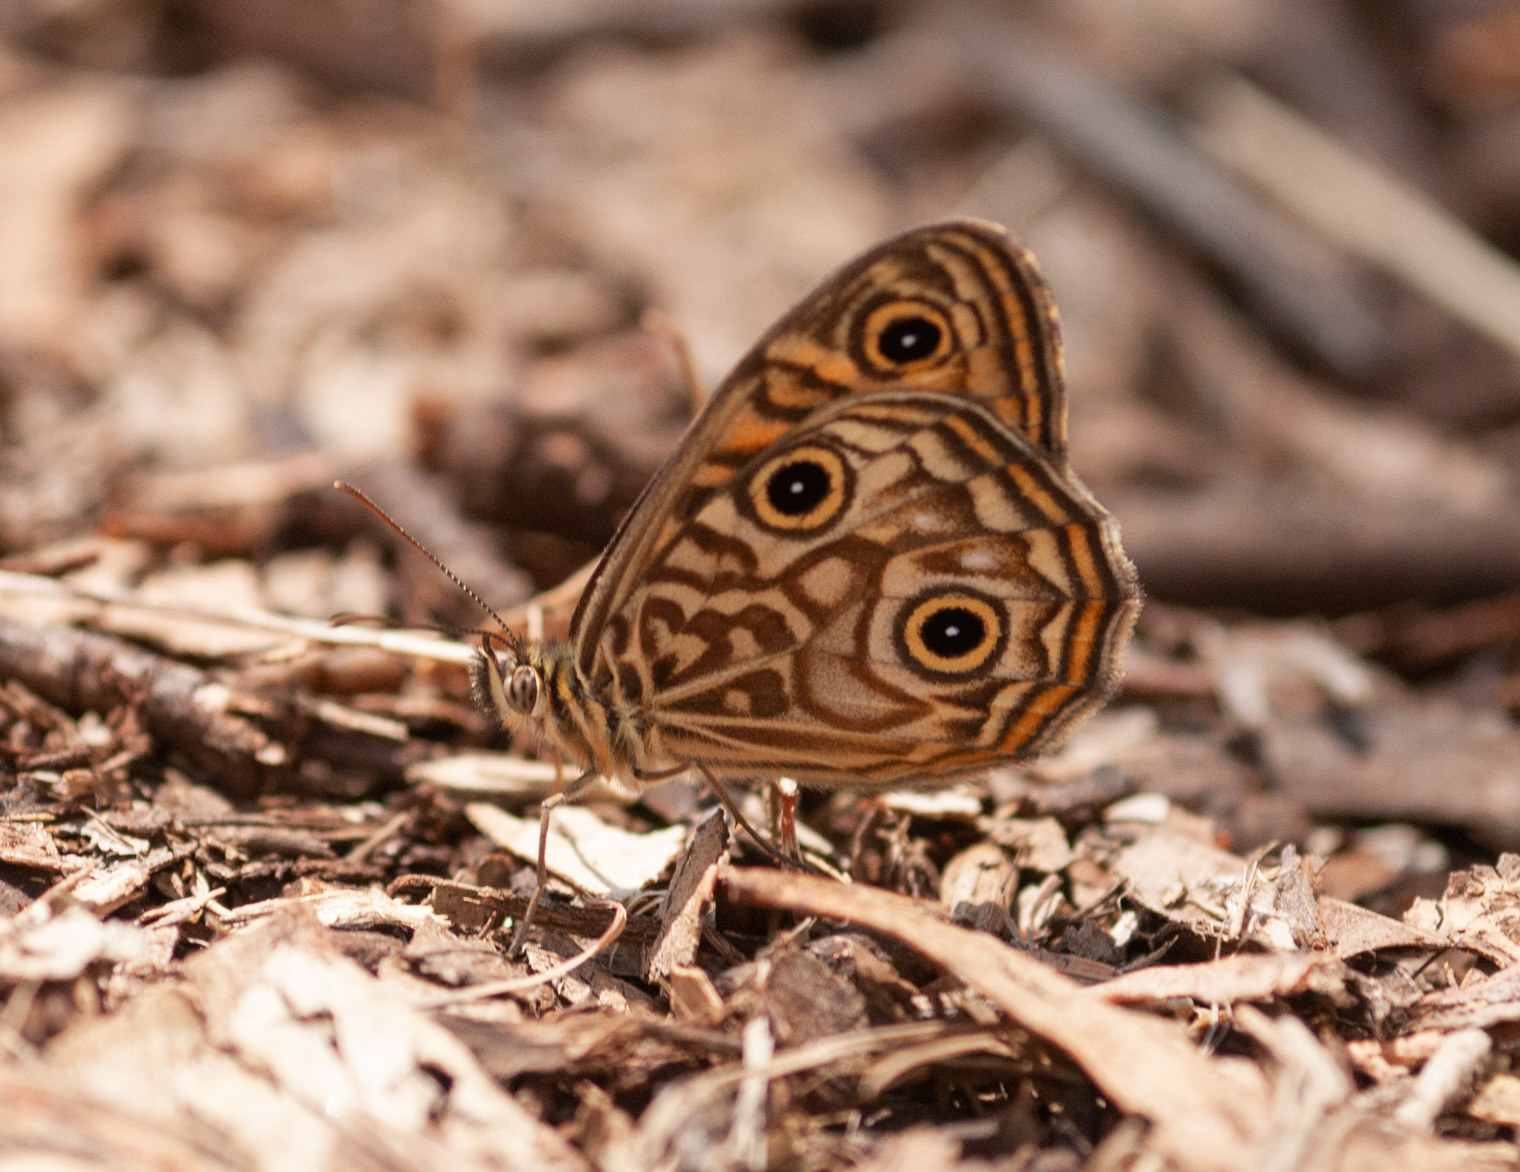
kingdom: Animalia
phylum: Arthropoda
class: Insecta
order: Lepidoptera
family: Nymphalidae
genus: Geitoneura
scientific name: Geitoneura acantha
